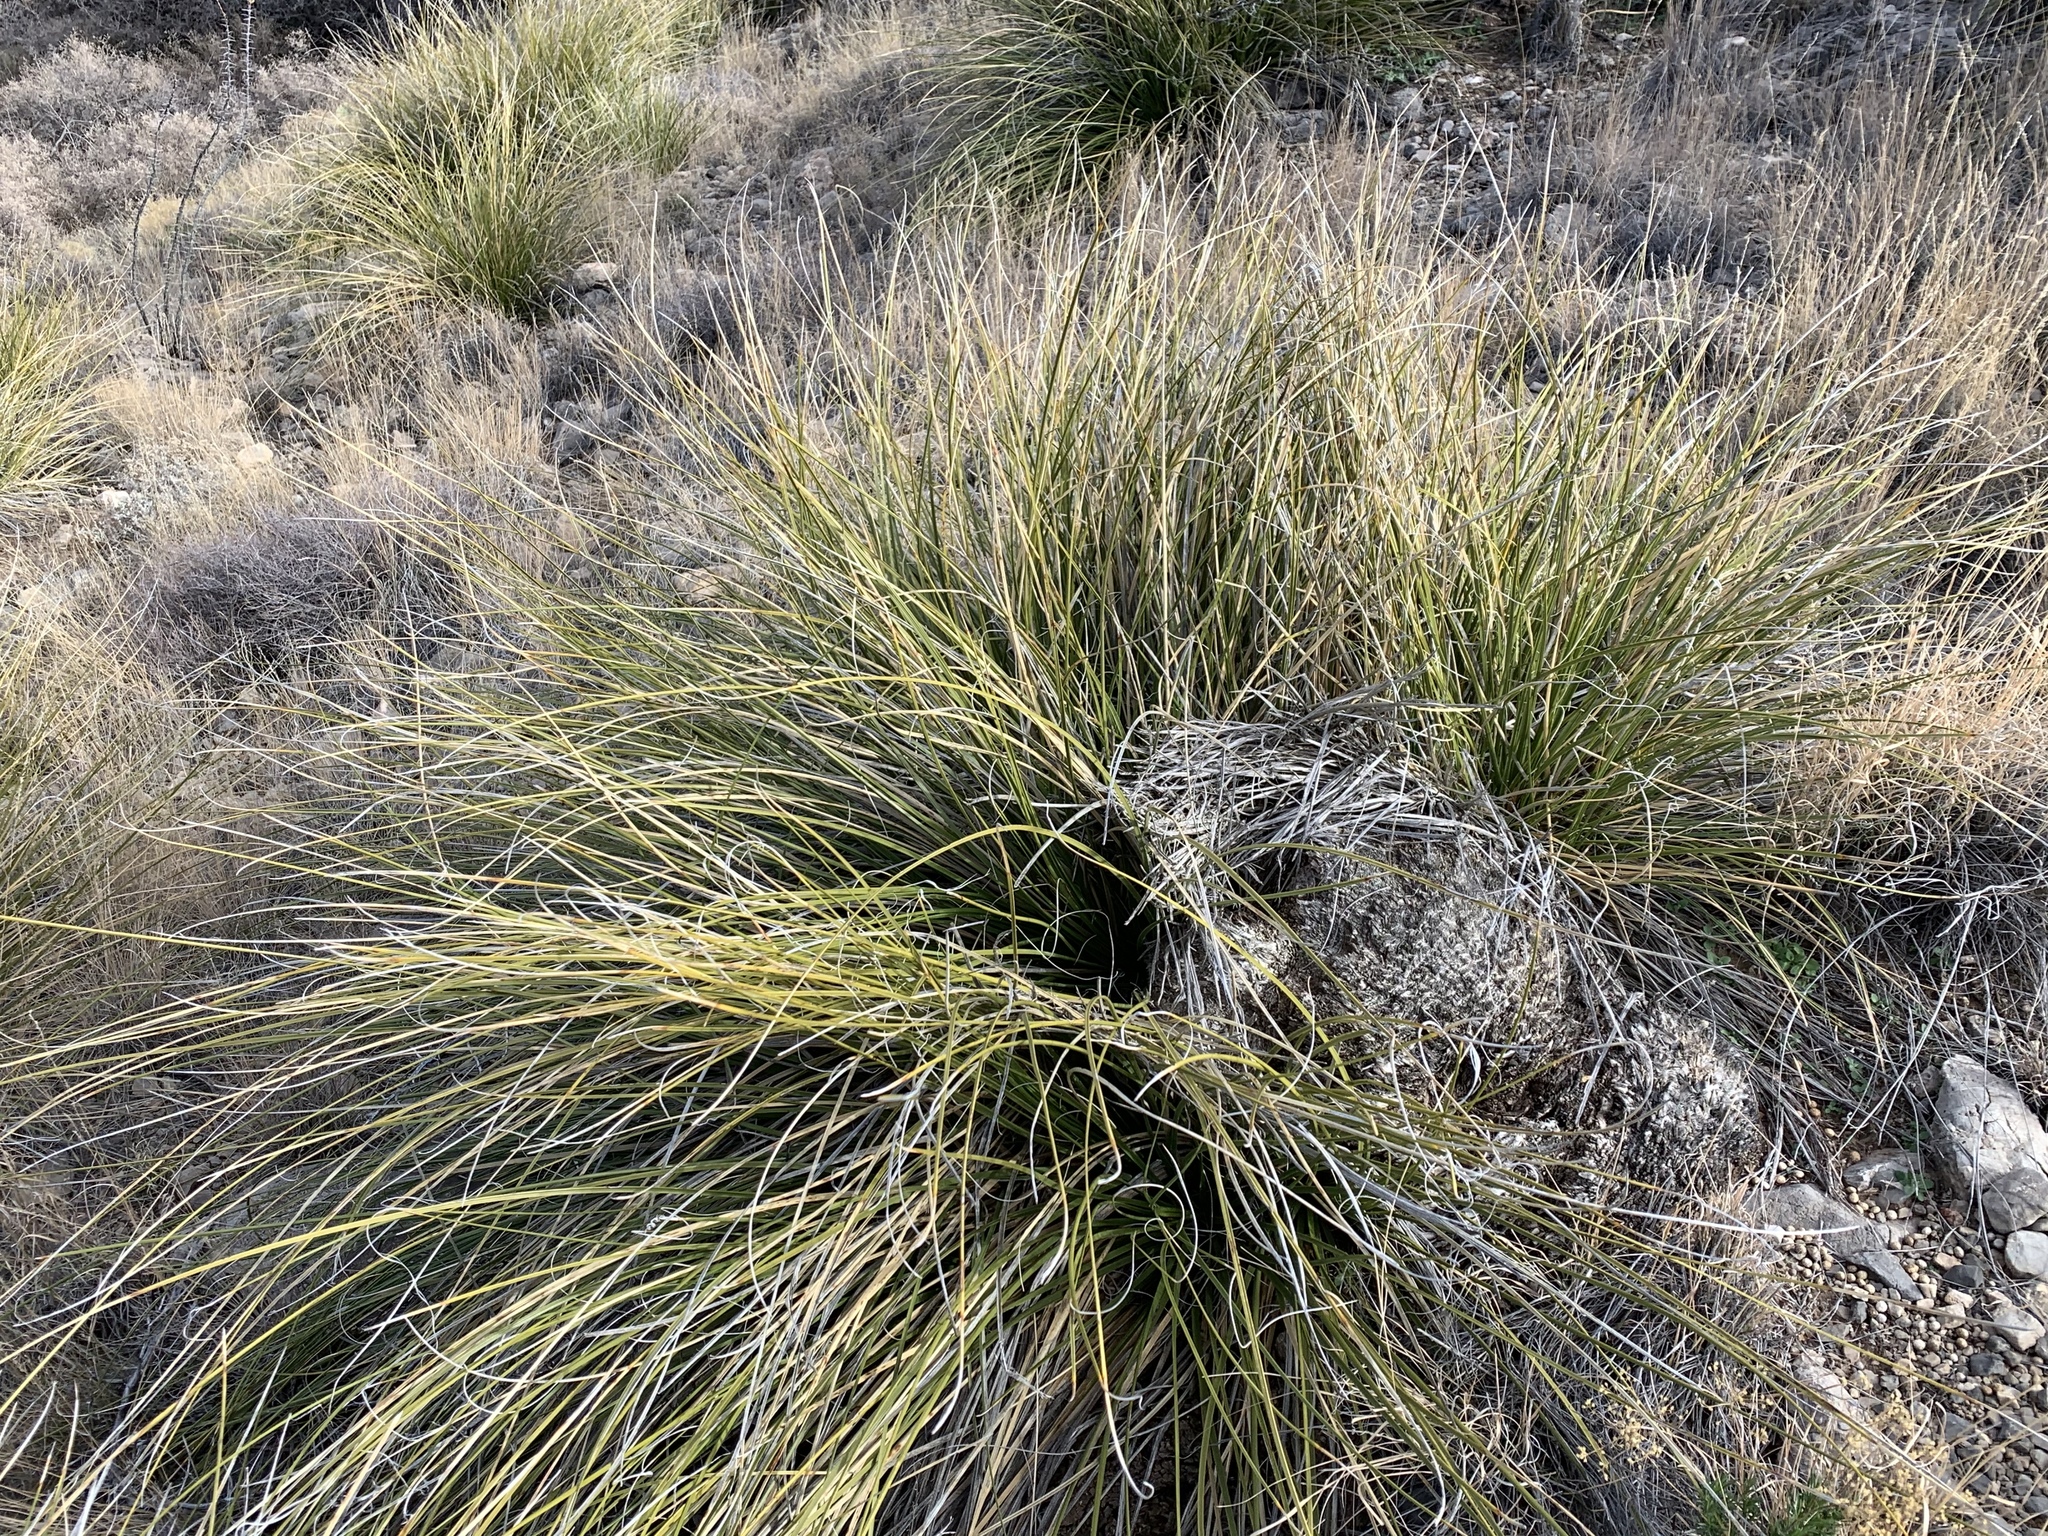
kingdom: Plantae
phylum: Tracheophyta
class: Liliopsida
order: Asparagales
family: Asparagaceae
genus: Nolina
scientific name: Nolina texana
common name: Texas sacahuiste
